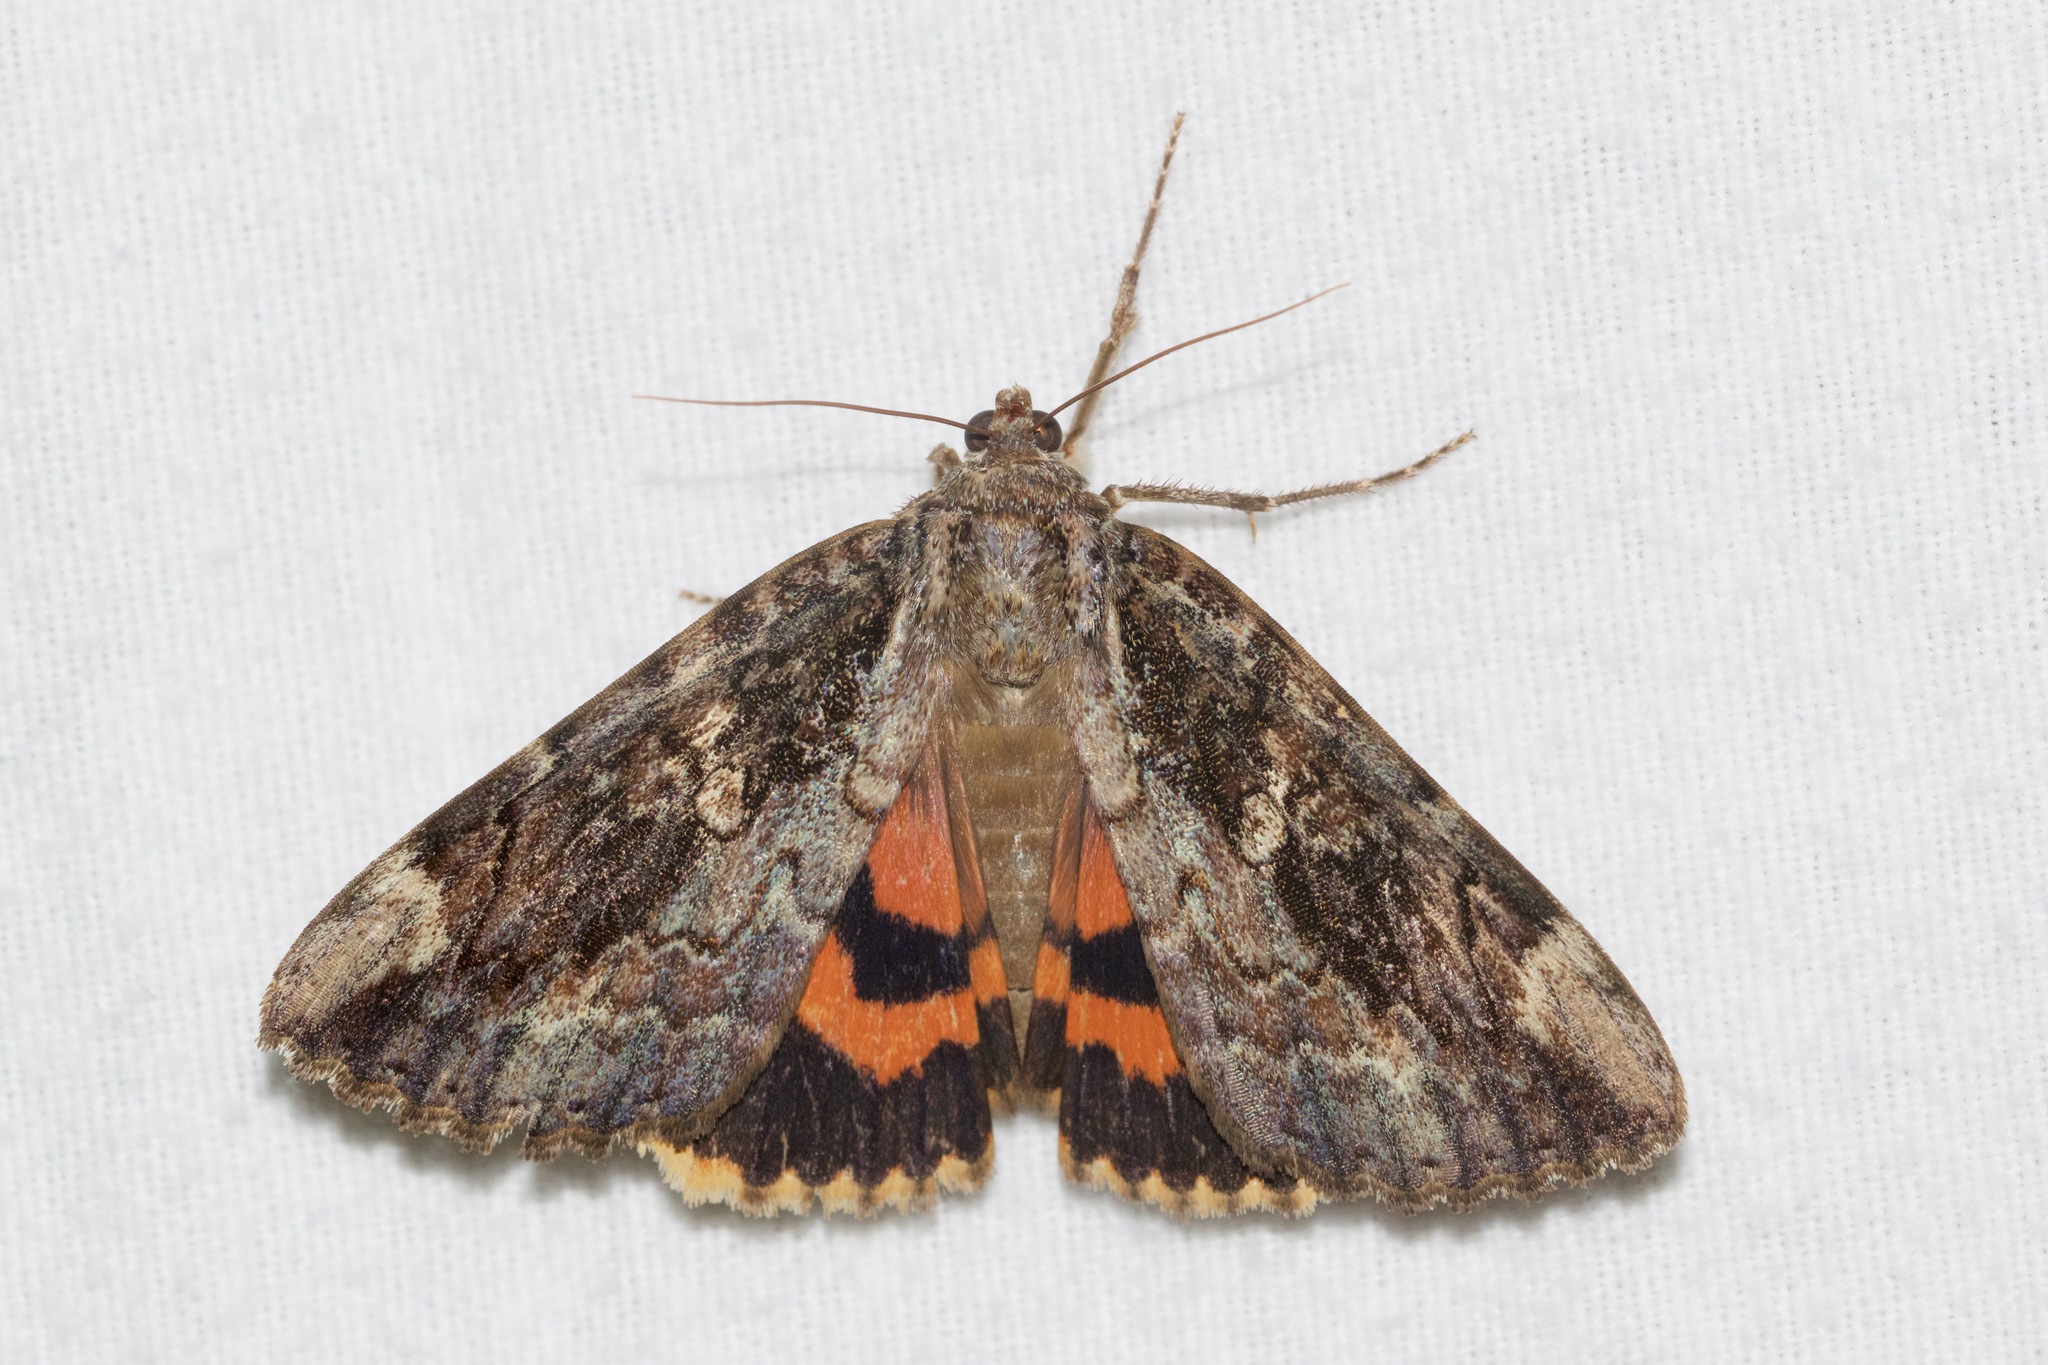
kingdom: Animalia
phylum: Arthropoda
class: Insecta
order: Lepidoptera
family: Erebidae
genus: Catocala
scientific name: Catocala innubens
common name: Betrothed underwing
